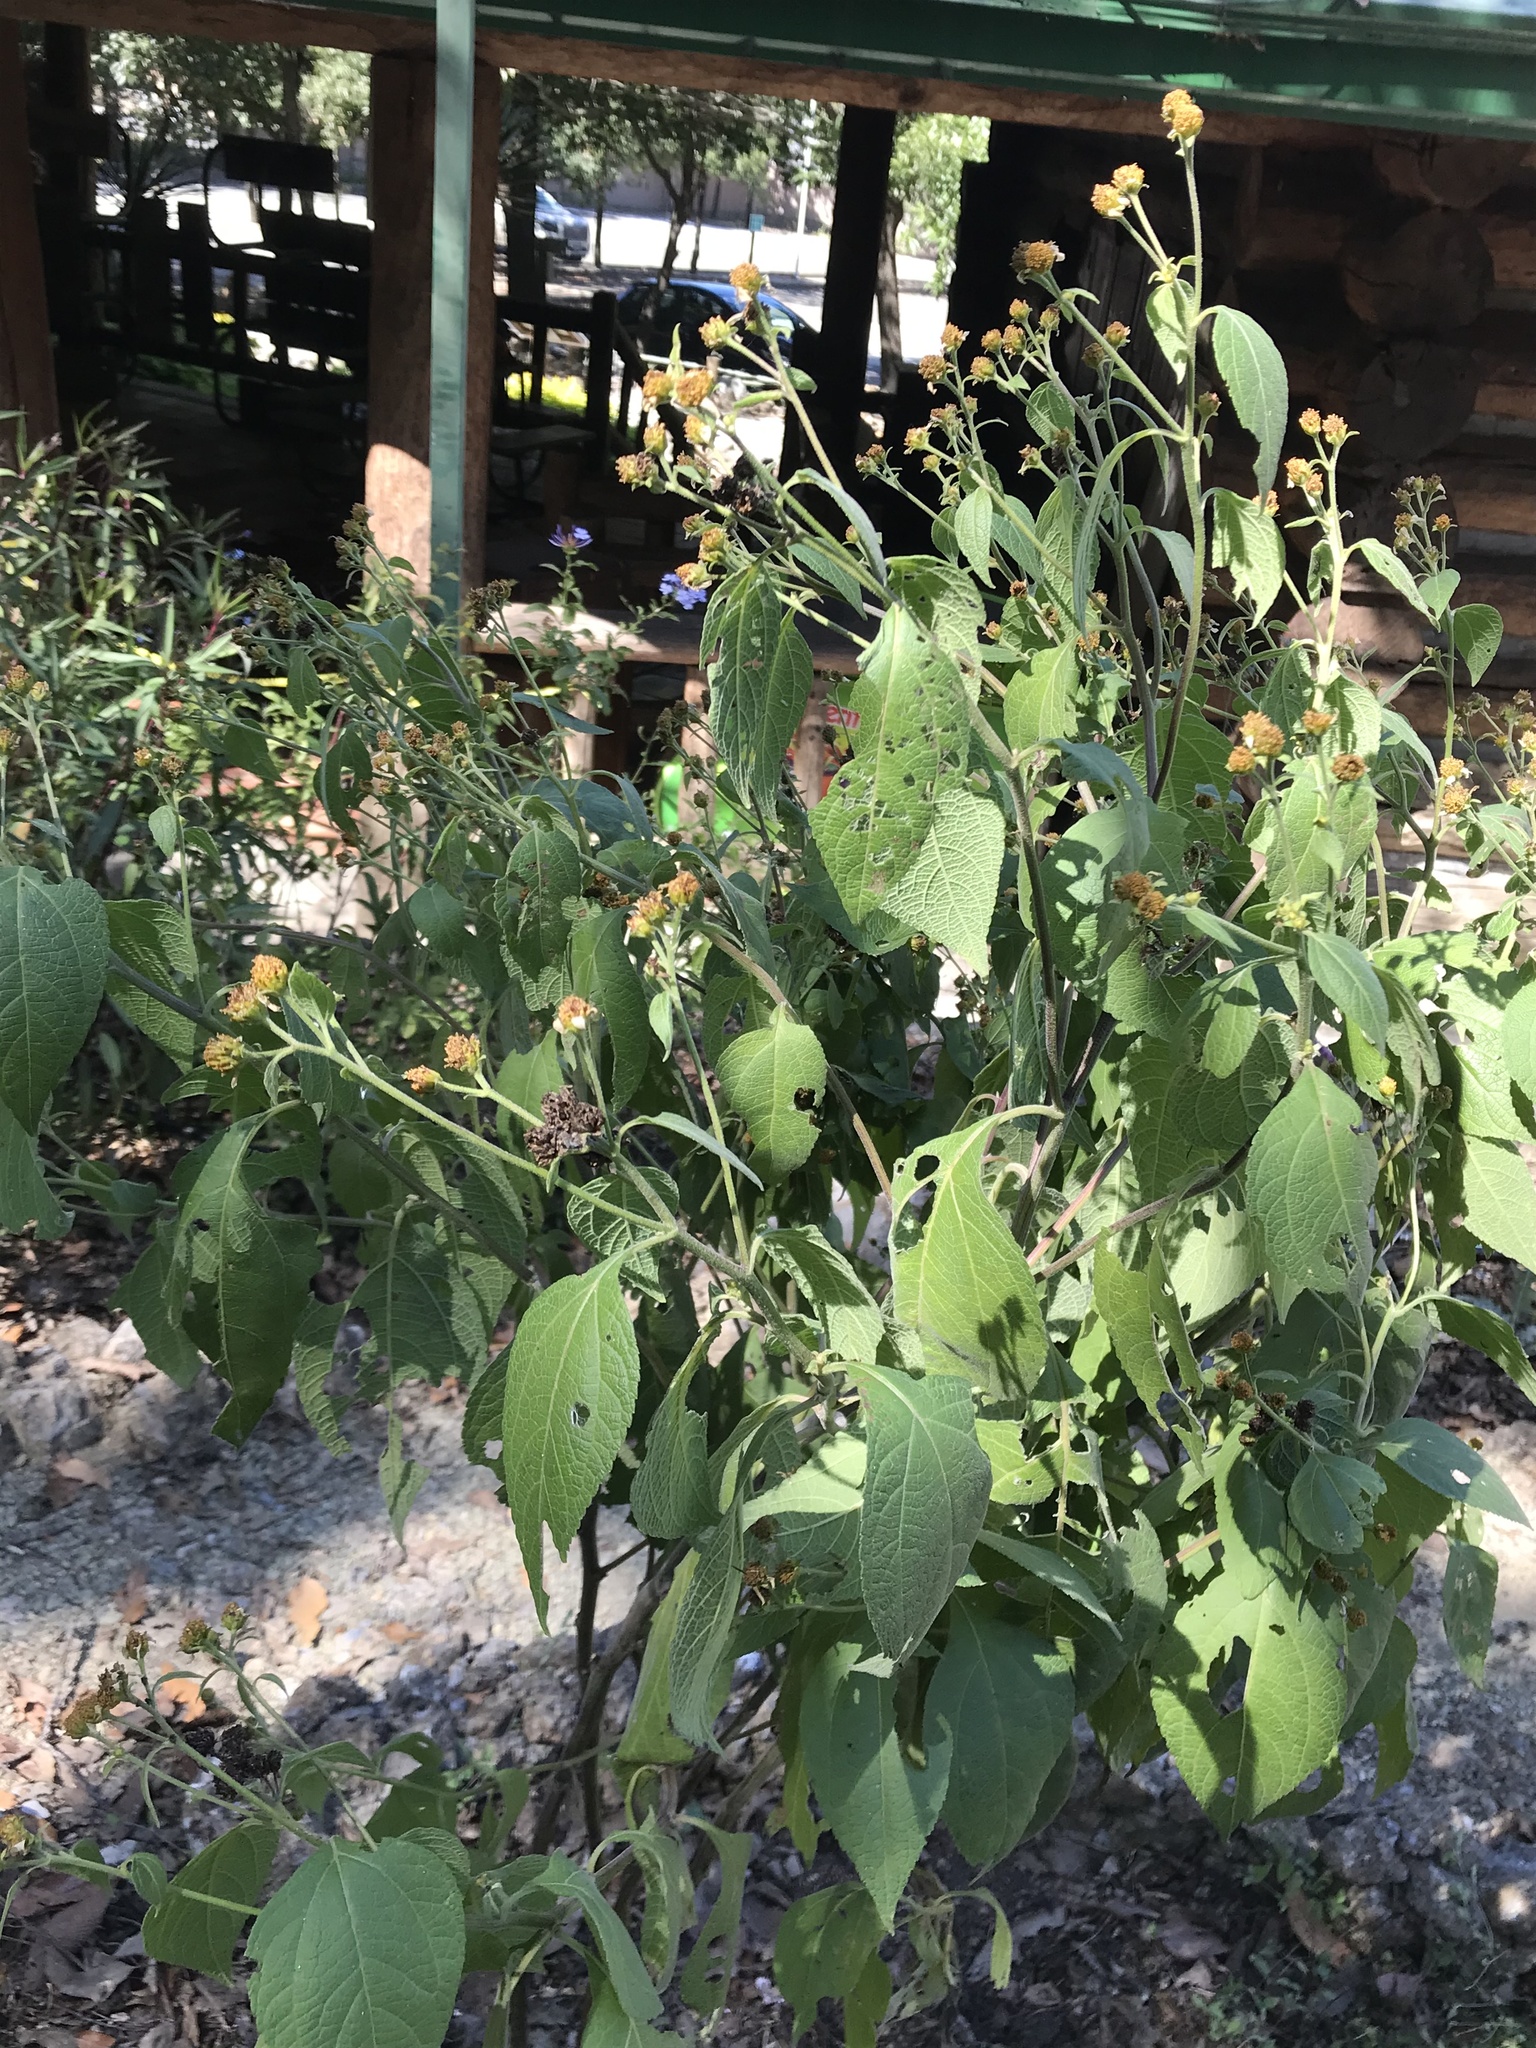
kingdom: Plantae
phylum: Tracheophyta
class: Magnoliopsida
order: Asterales
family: Asteraceae
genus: Greenmaniella
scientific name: Greenmaniella resinosa
